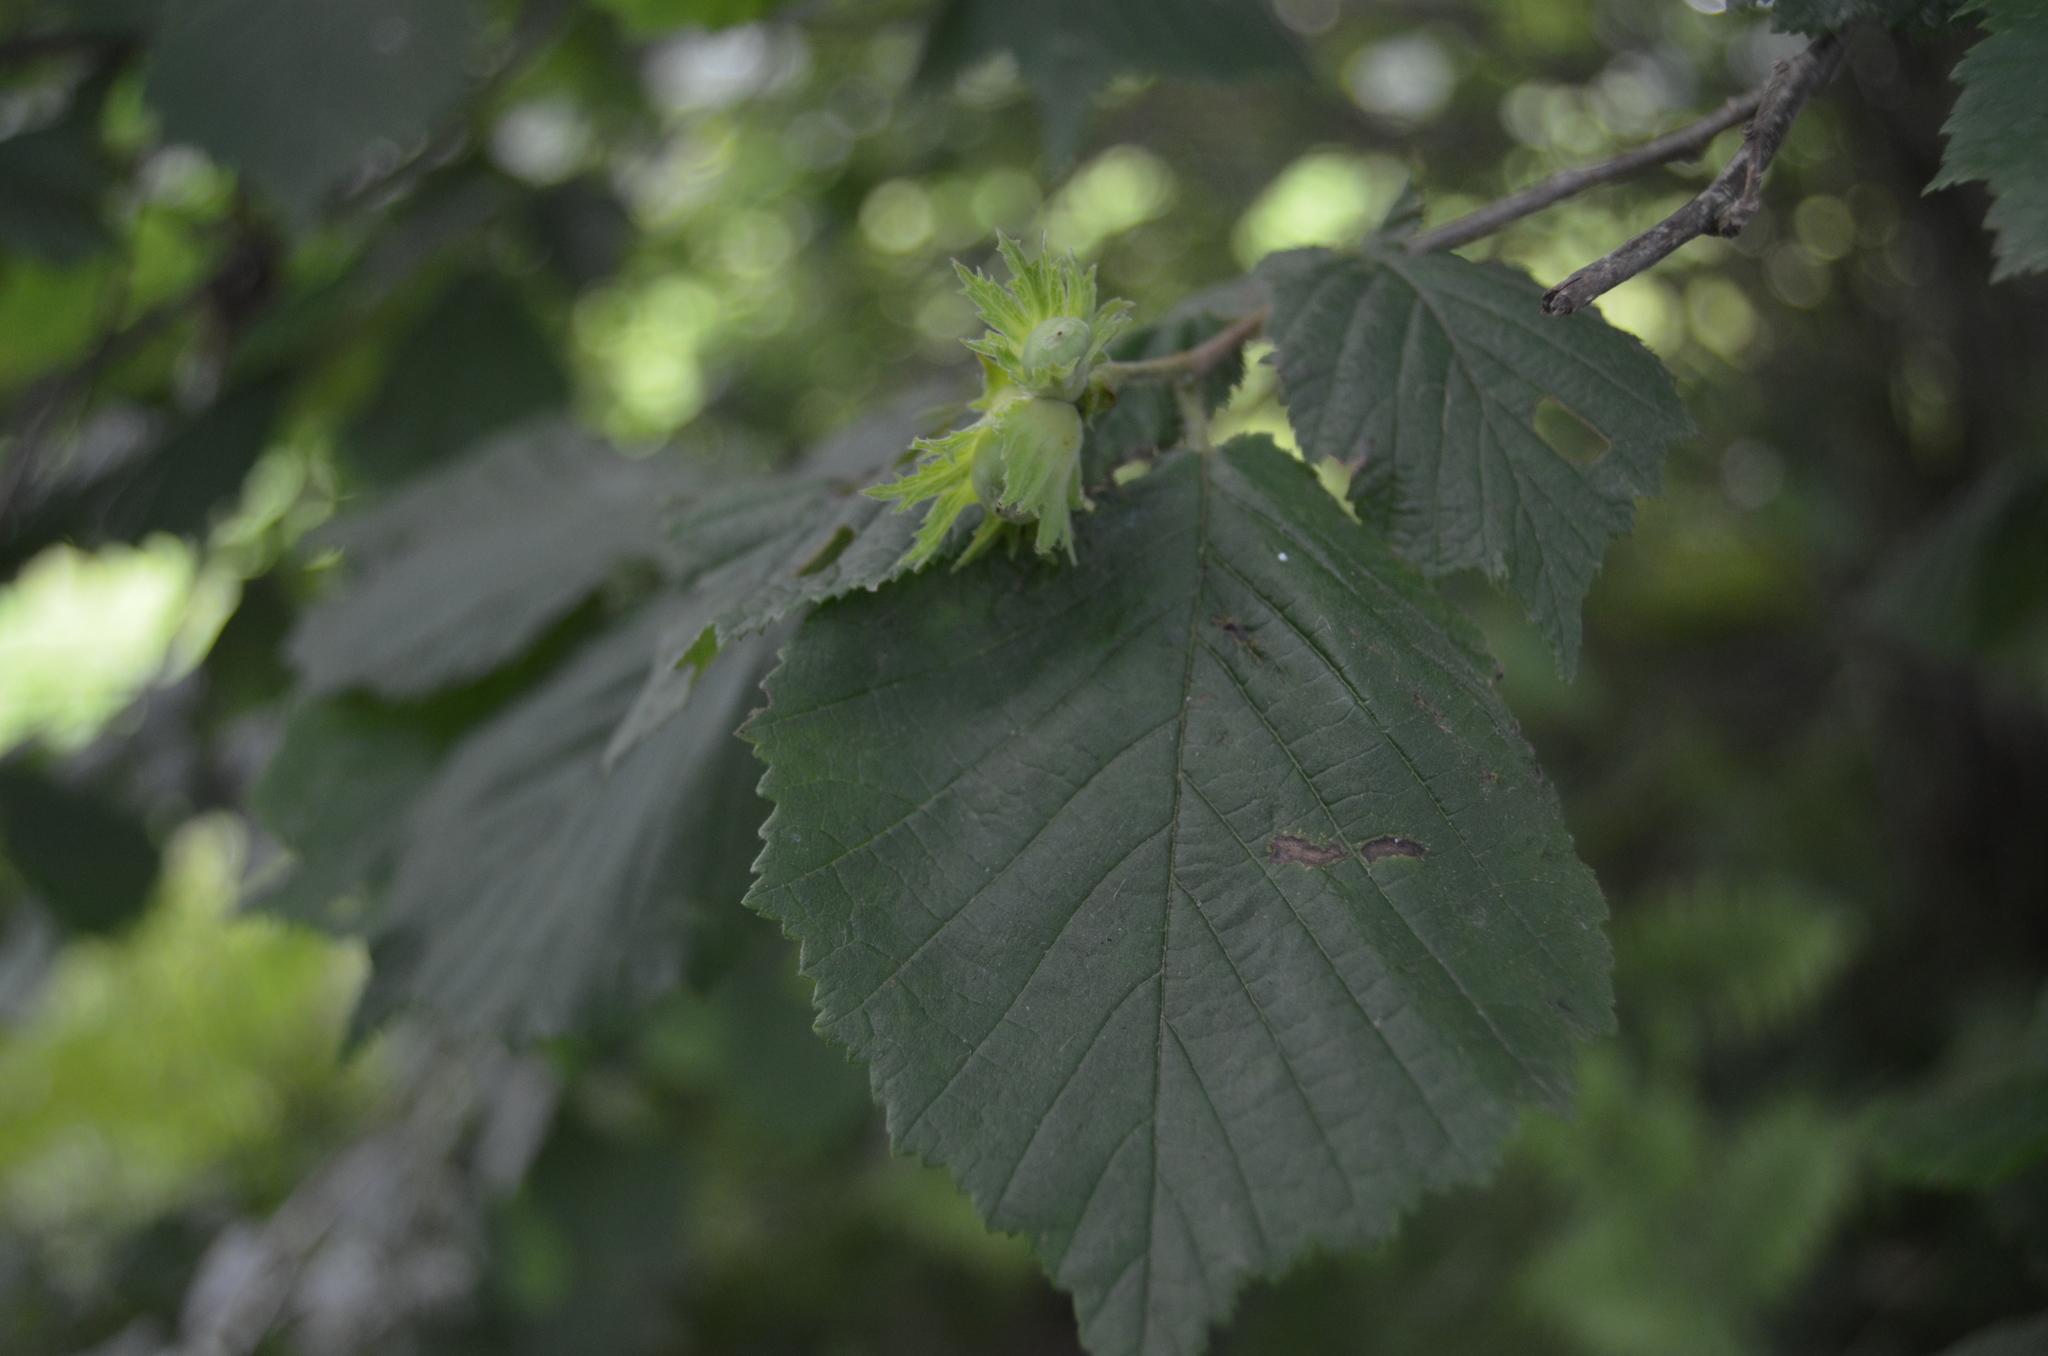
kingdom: Plantae
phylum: Tracheophyta
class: Magnoliopsida
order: Fagales
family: Betulaceae
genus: Corylus
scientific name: Corylus avellana
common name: European hazel
